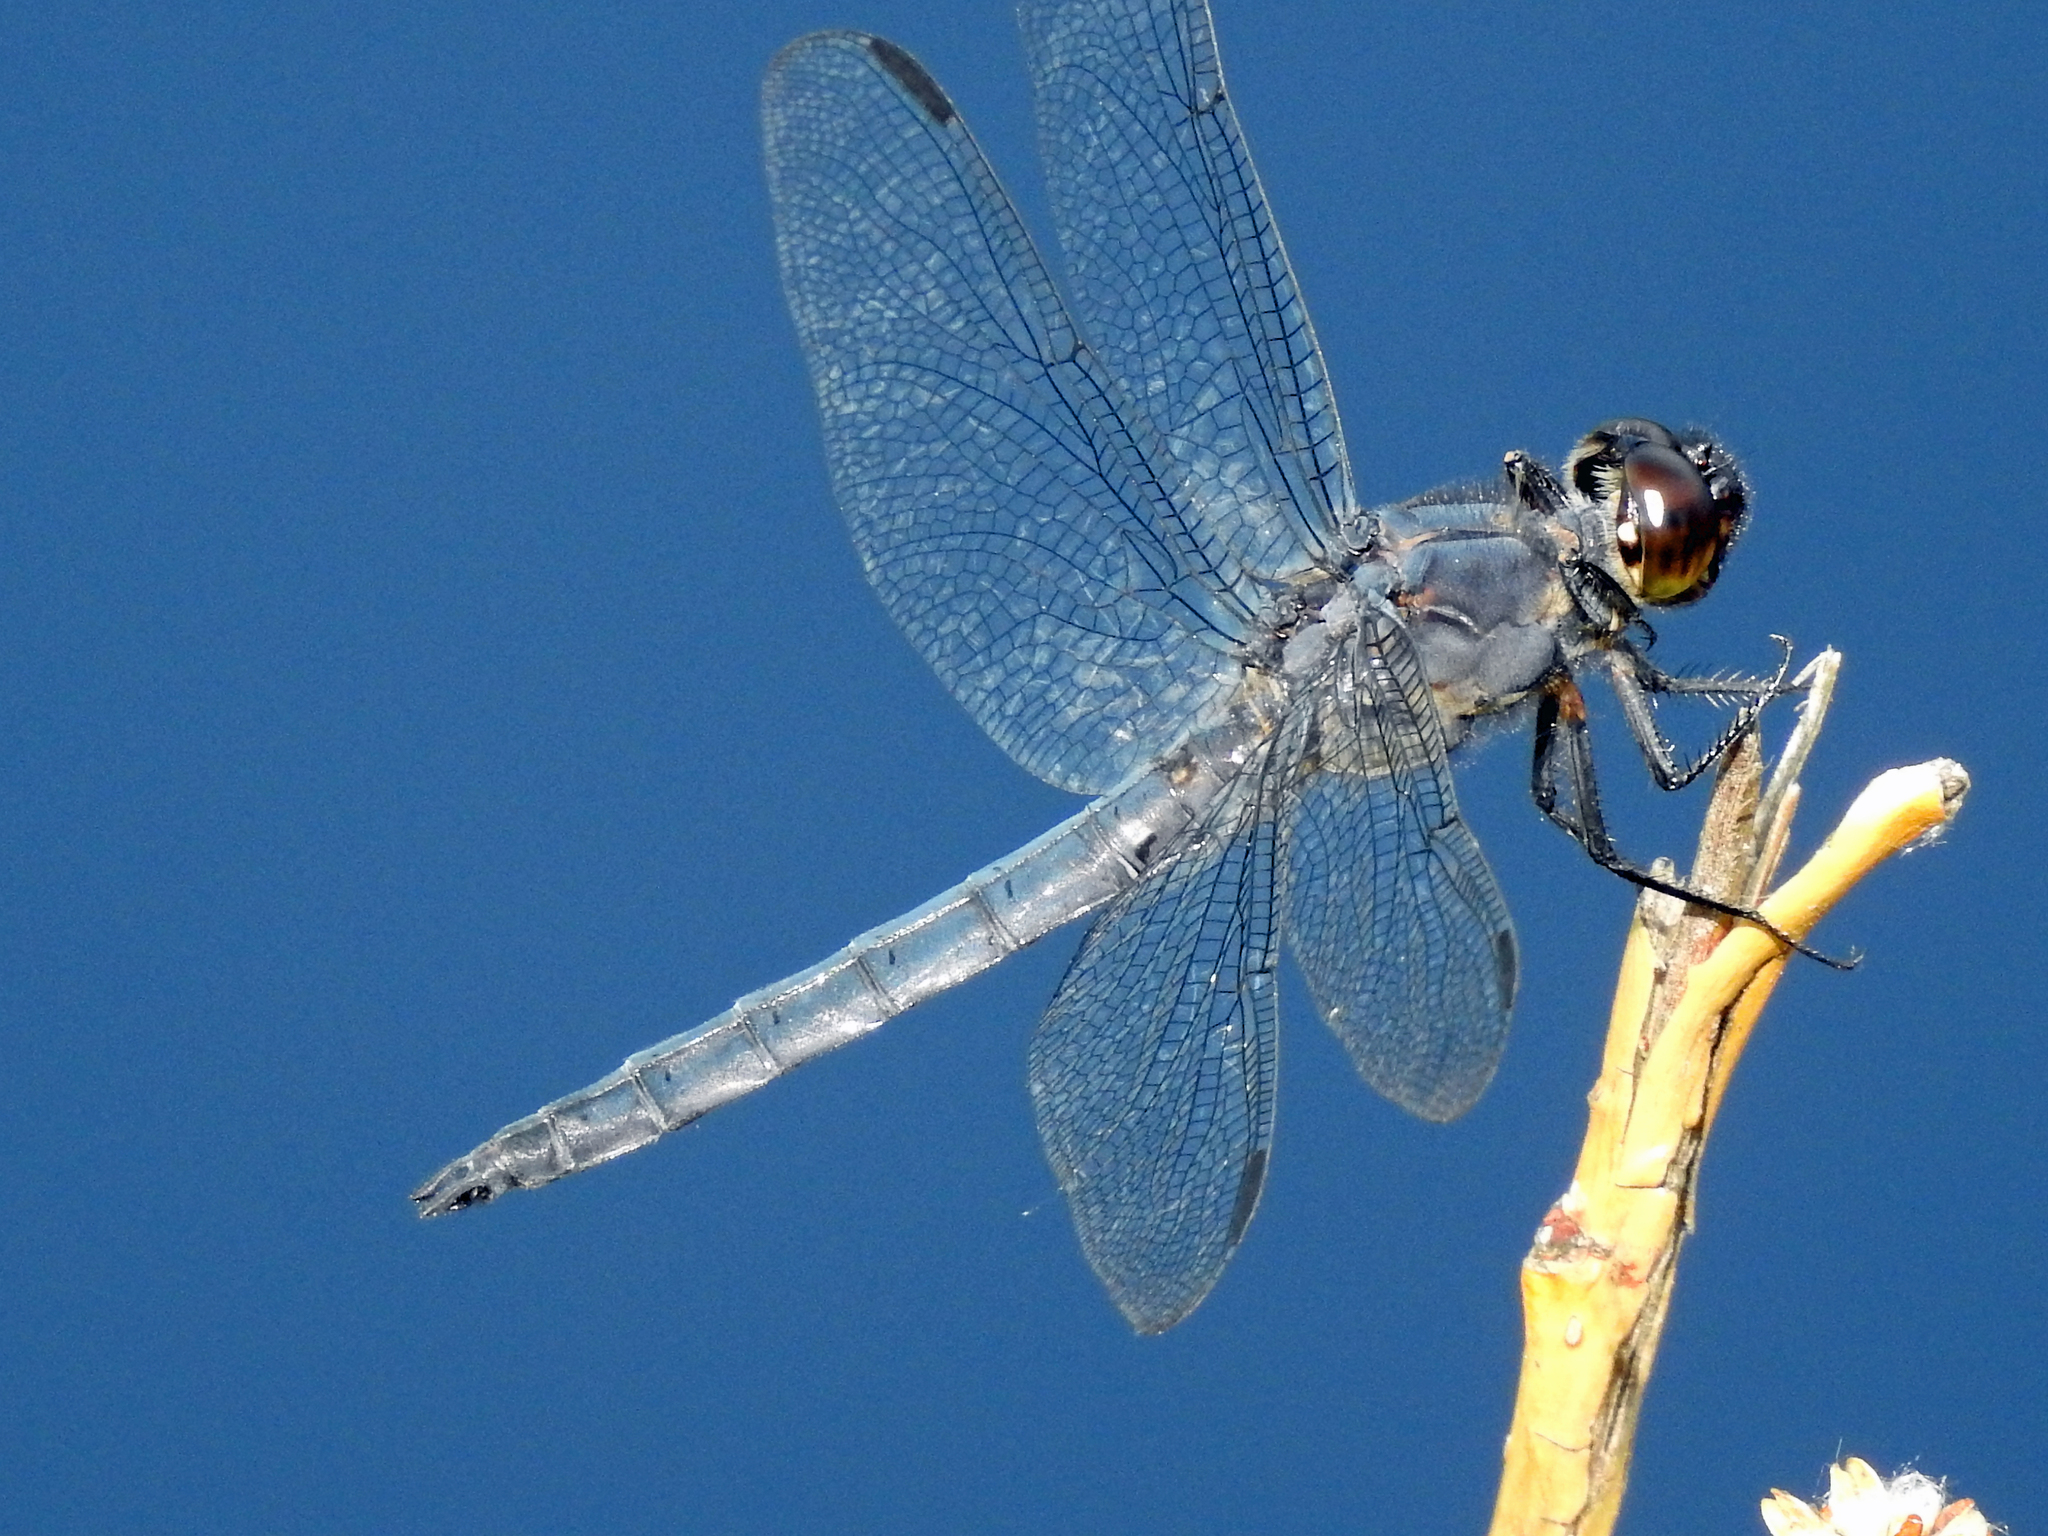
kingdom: Animalia
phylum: Arthropoda
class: Insecta
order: Odonata
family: Libellulidae
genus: Libellula
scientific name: Libellula incesta
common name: Slaty skimmer
